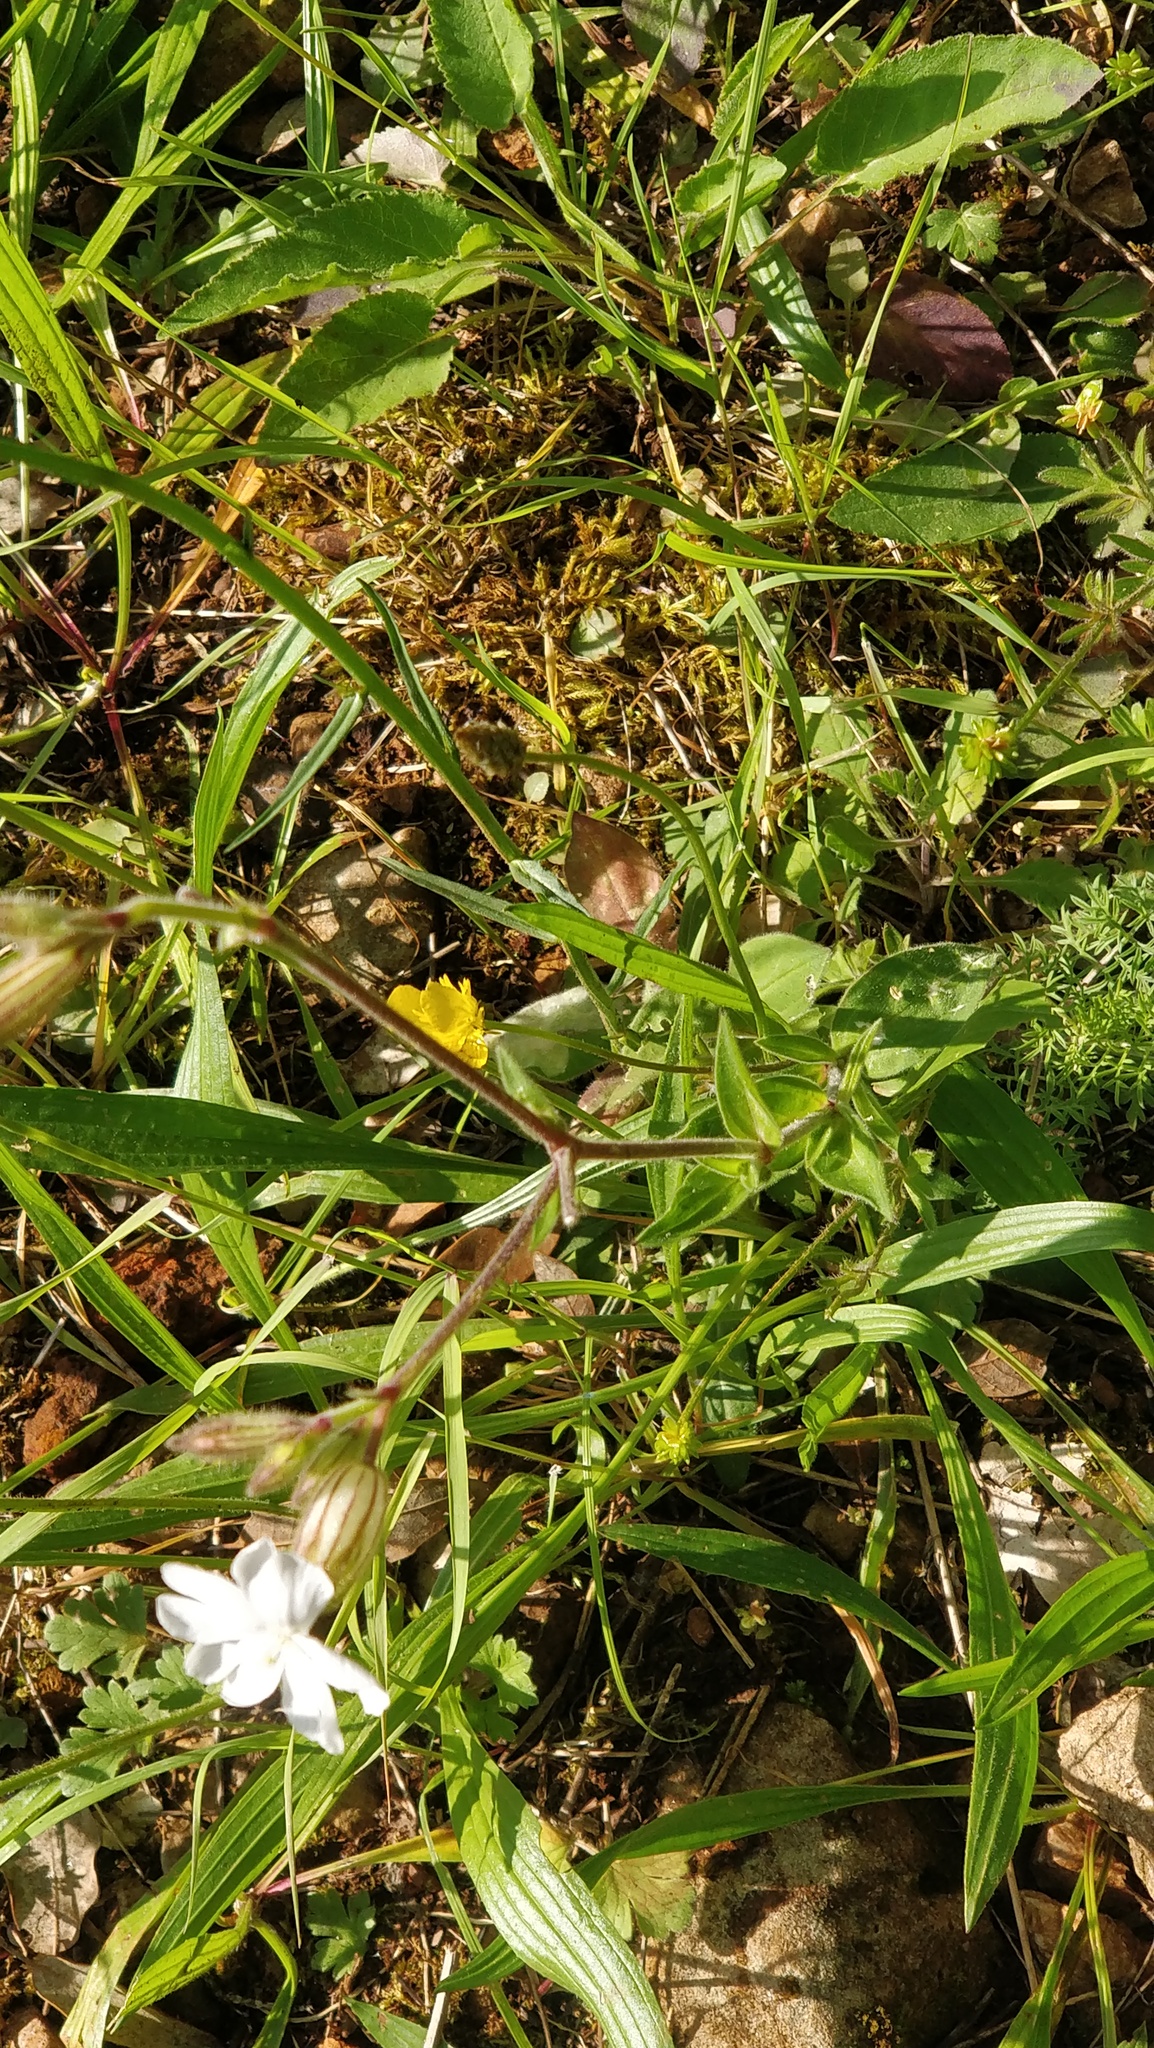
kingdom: Plantae
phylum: Tracheophyta
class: Magnoliopsida
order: Caryophyllales
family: Caryophyllaceae
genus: Silene
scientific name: Silene latifolia
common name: White campion
